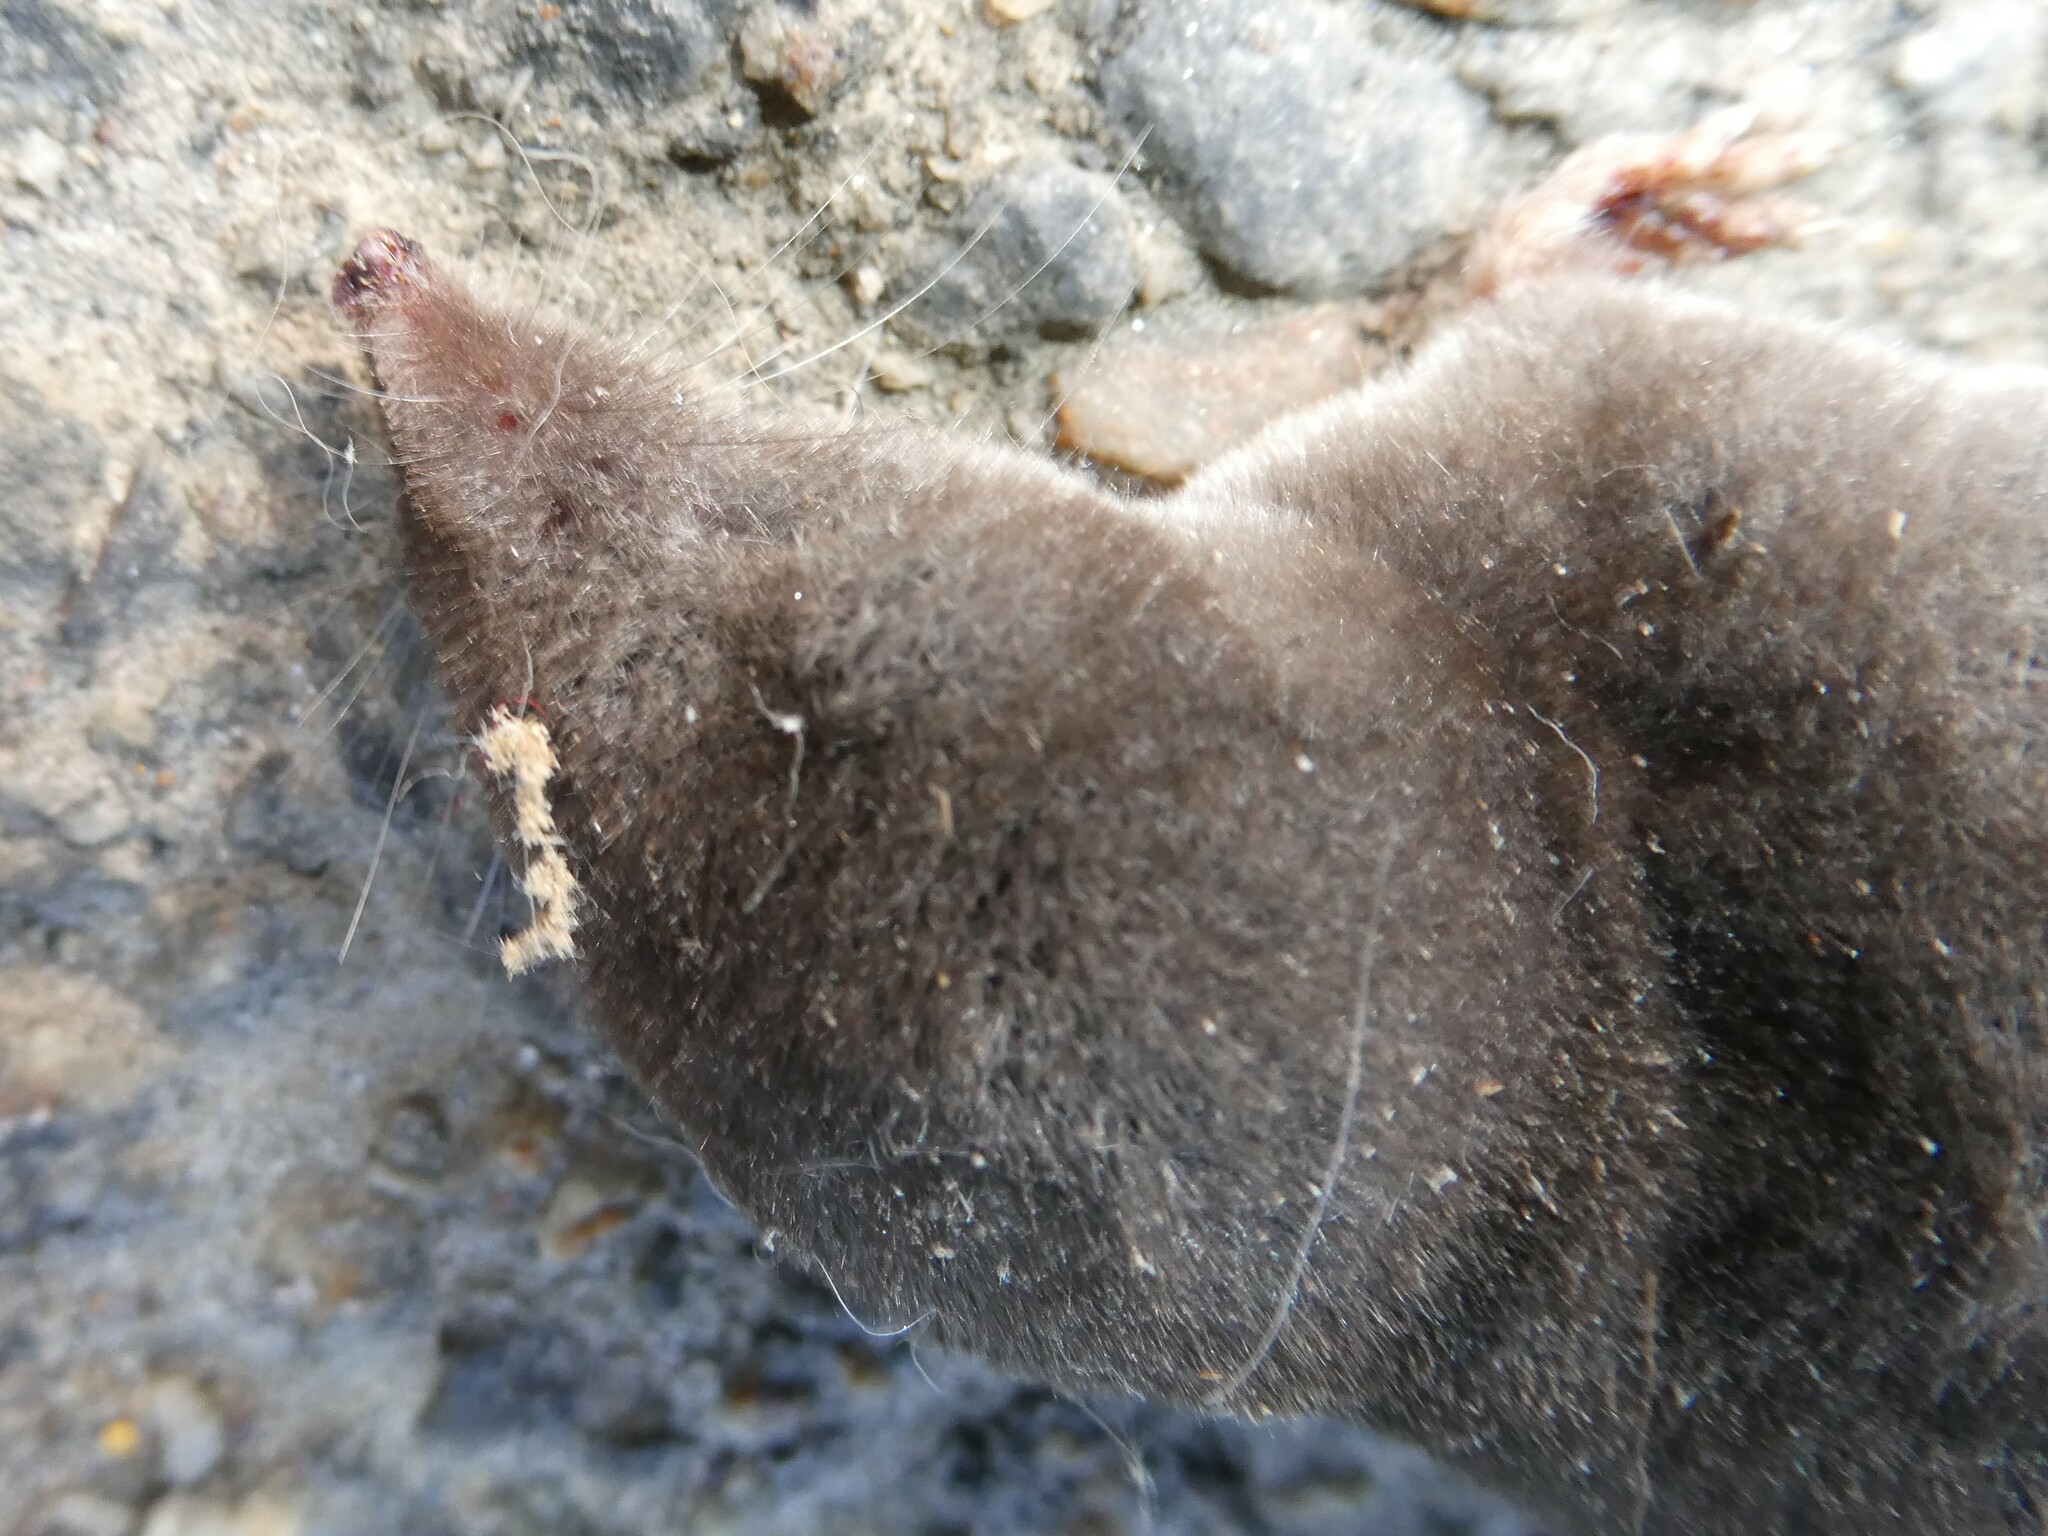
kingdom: Animalia
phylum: Chordata
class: Mammalia
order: Soricomorpha
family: Soricidae
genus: Blarina
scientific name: Blarina brevicauda
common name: Northern short-tailed shrew
